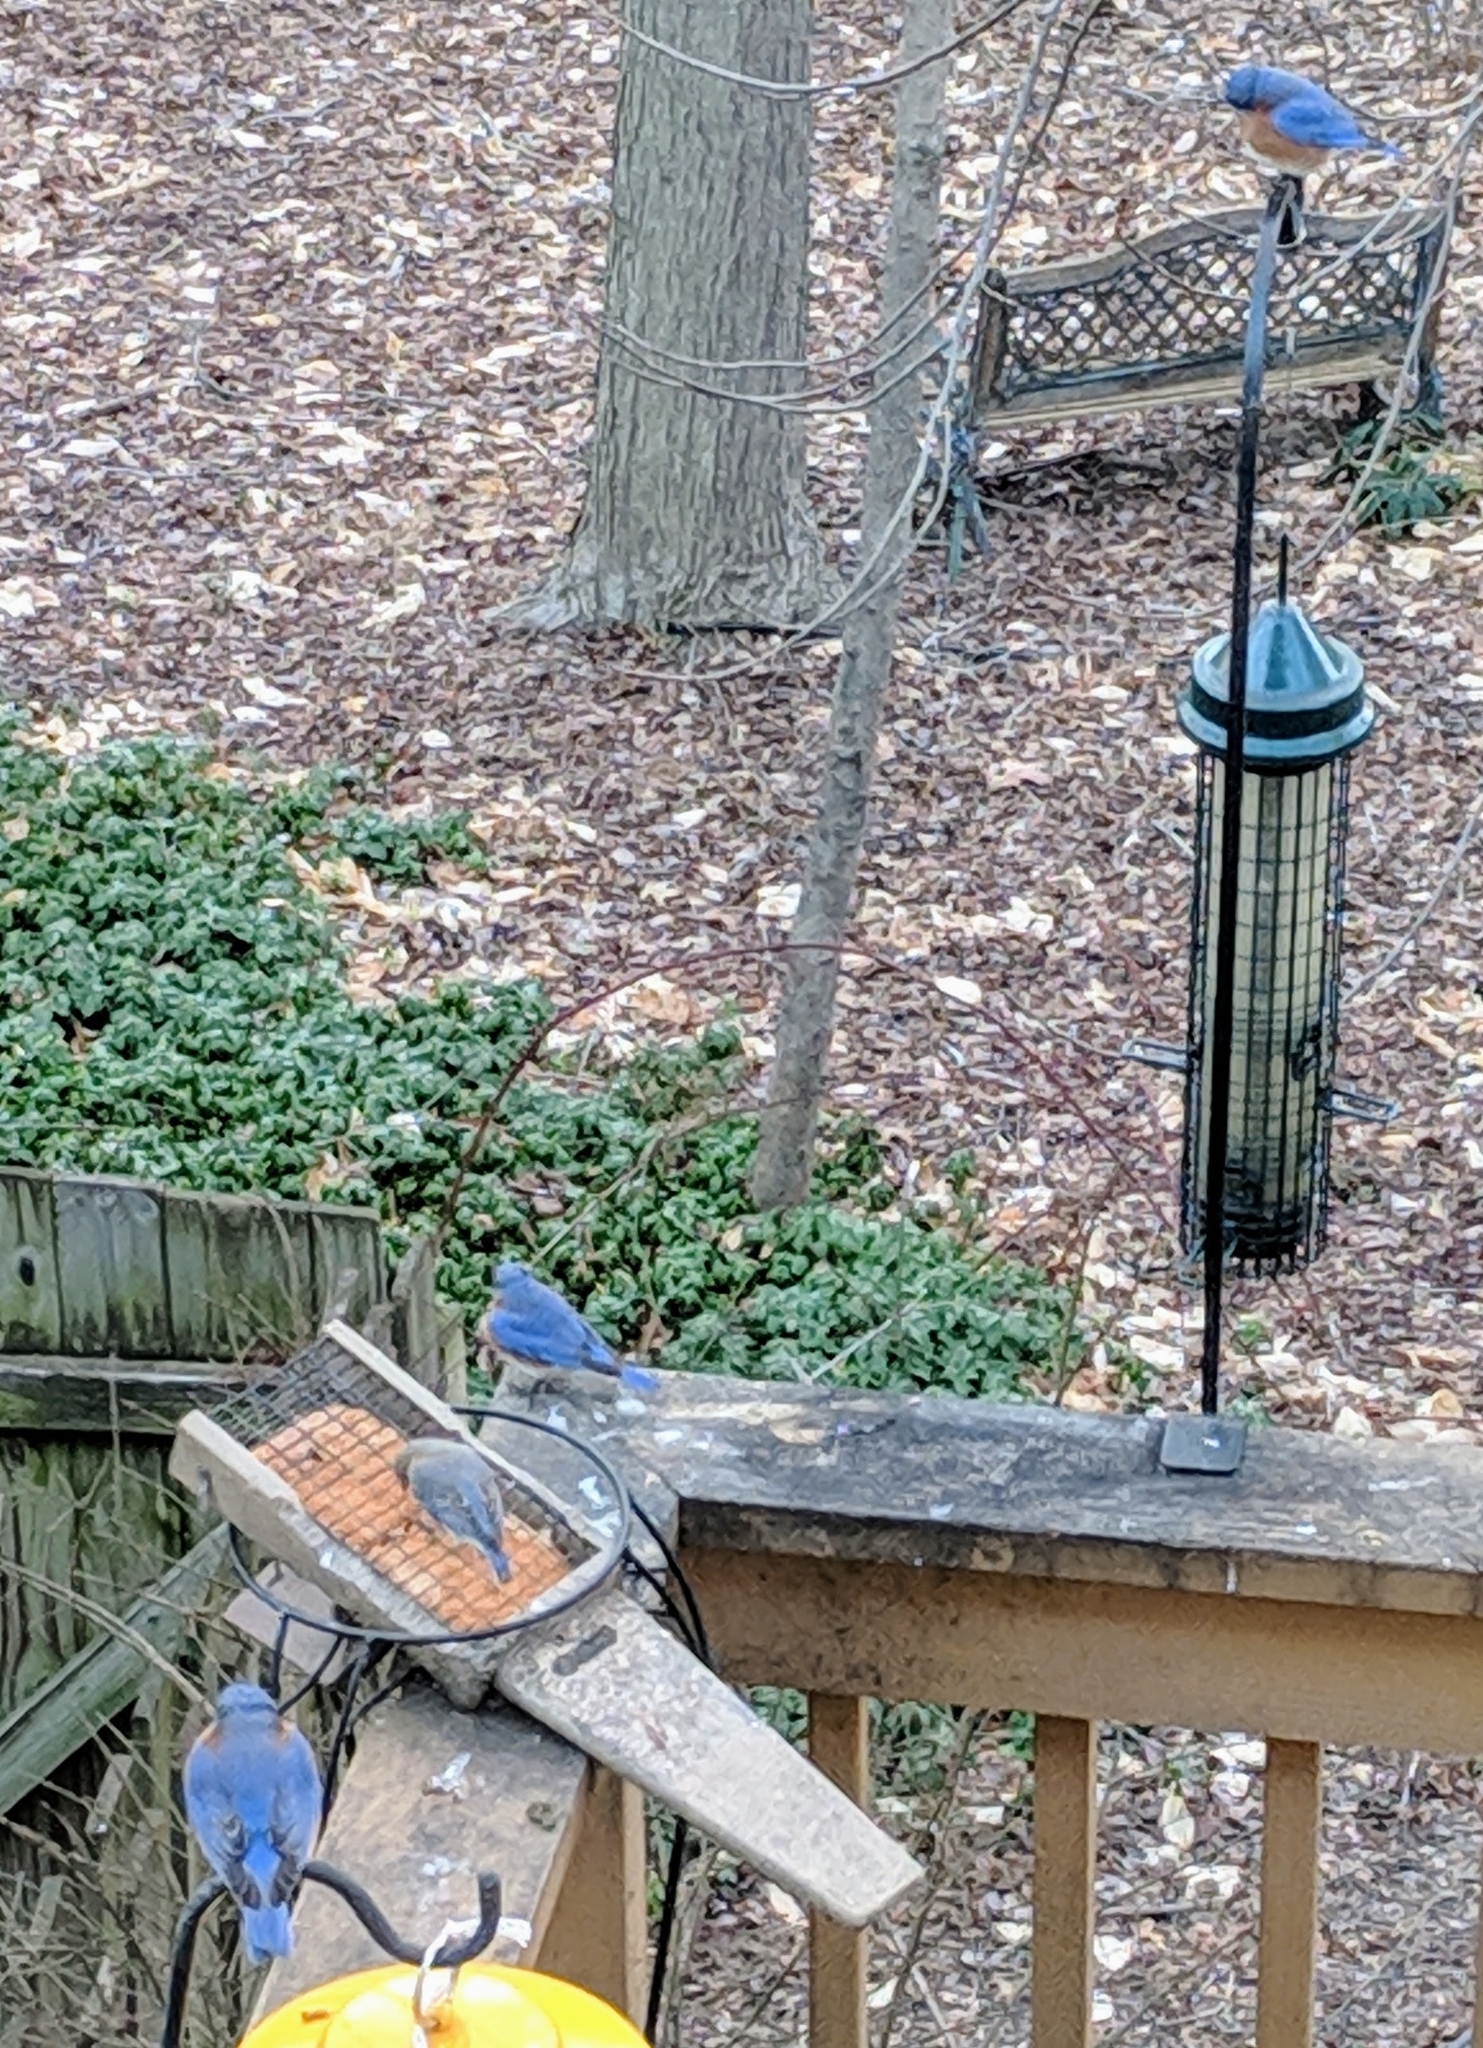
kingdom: Animalia
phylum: Chordata
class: Aves
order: Passeriformes
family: Turdidae
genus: Sialia
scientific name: Sialia sialis
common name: Eastern bluebird
